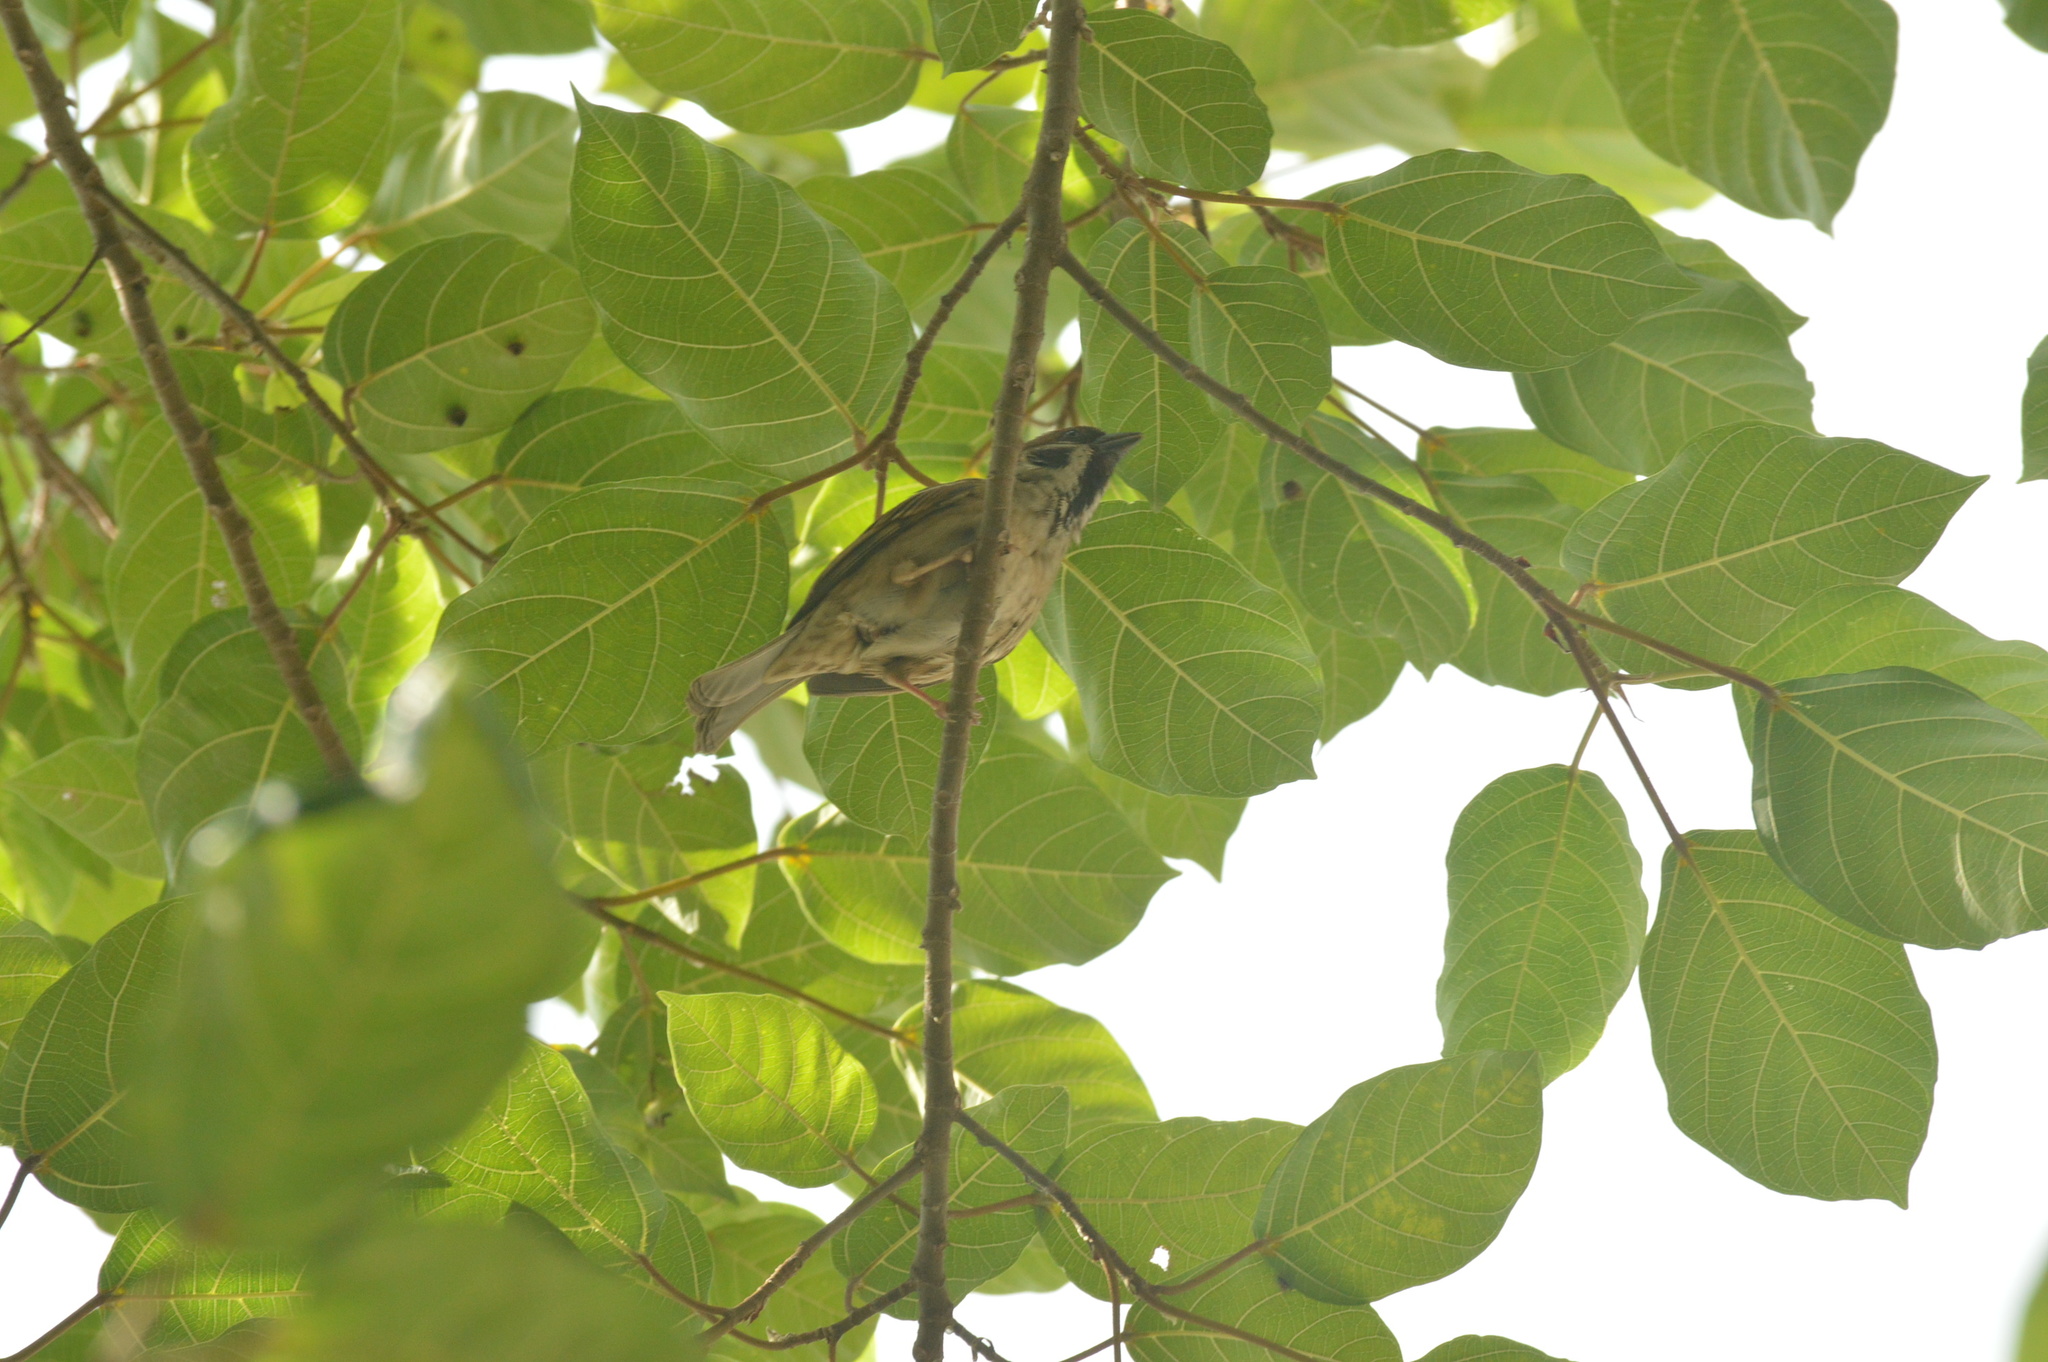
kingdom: Animalia
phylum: Chordata
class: Aves
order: Passeriformes
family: Passeridae
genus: Passer
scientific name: Passer montanus
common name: Eurasian tree sparrow
